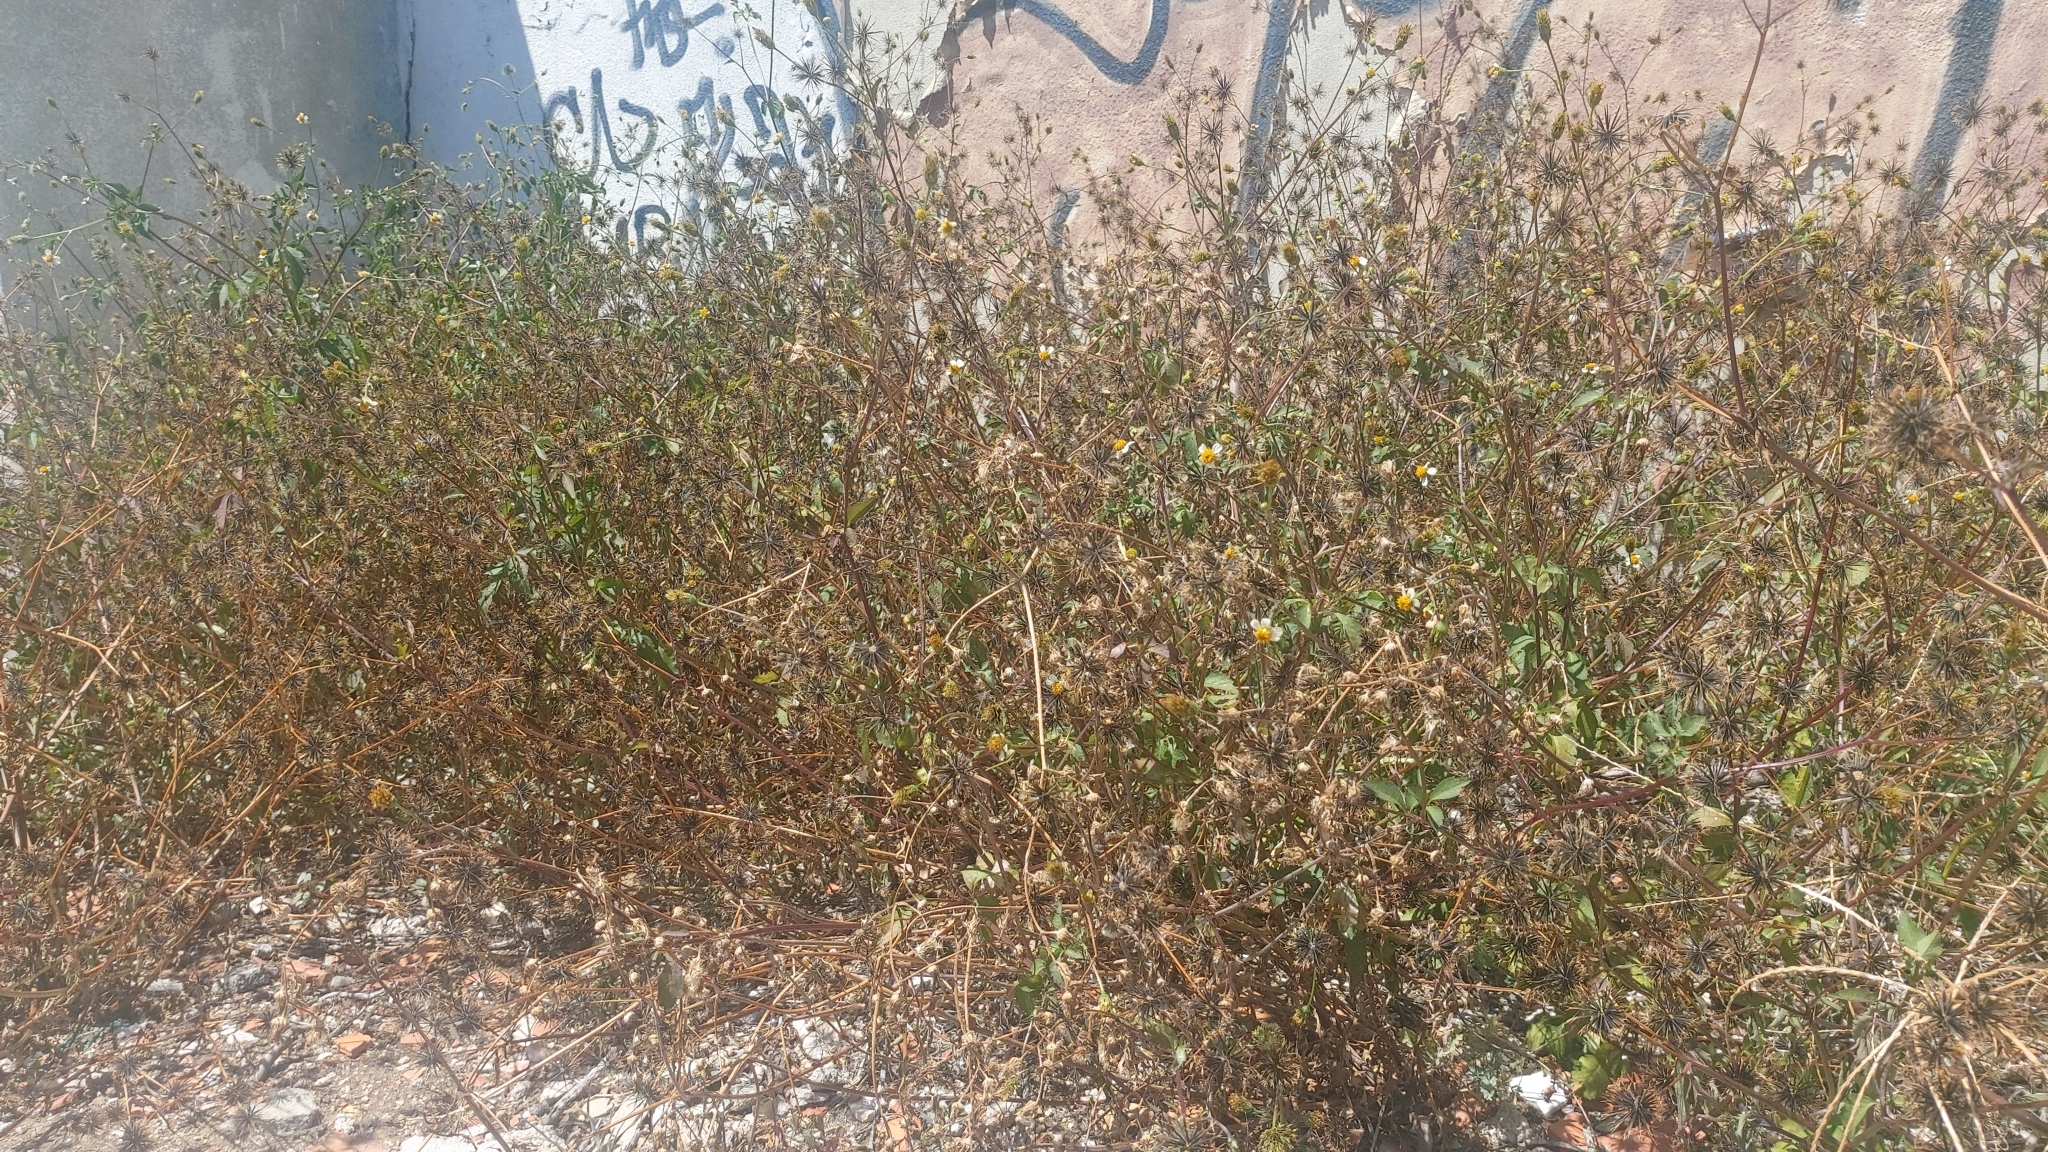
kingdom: Plantae
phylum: Tracheophyta
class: Magnoliopsida
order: Asterales
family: Asteraceae
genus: Bidens
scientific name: Bidens pilosa
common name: Black-jack
